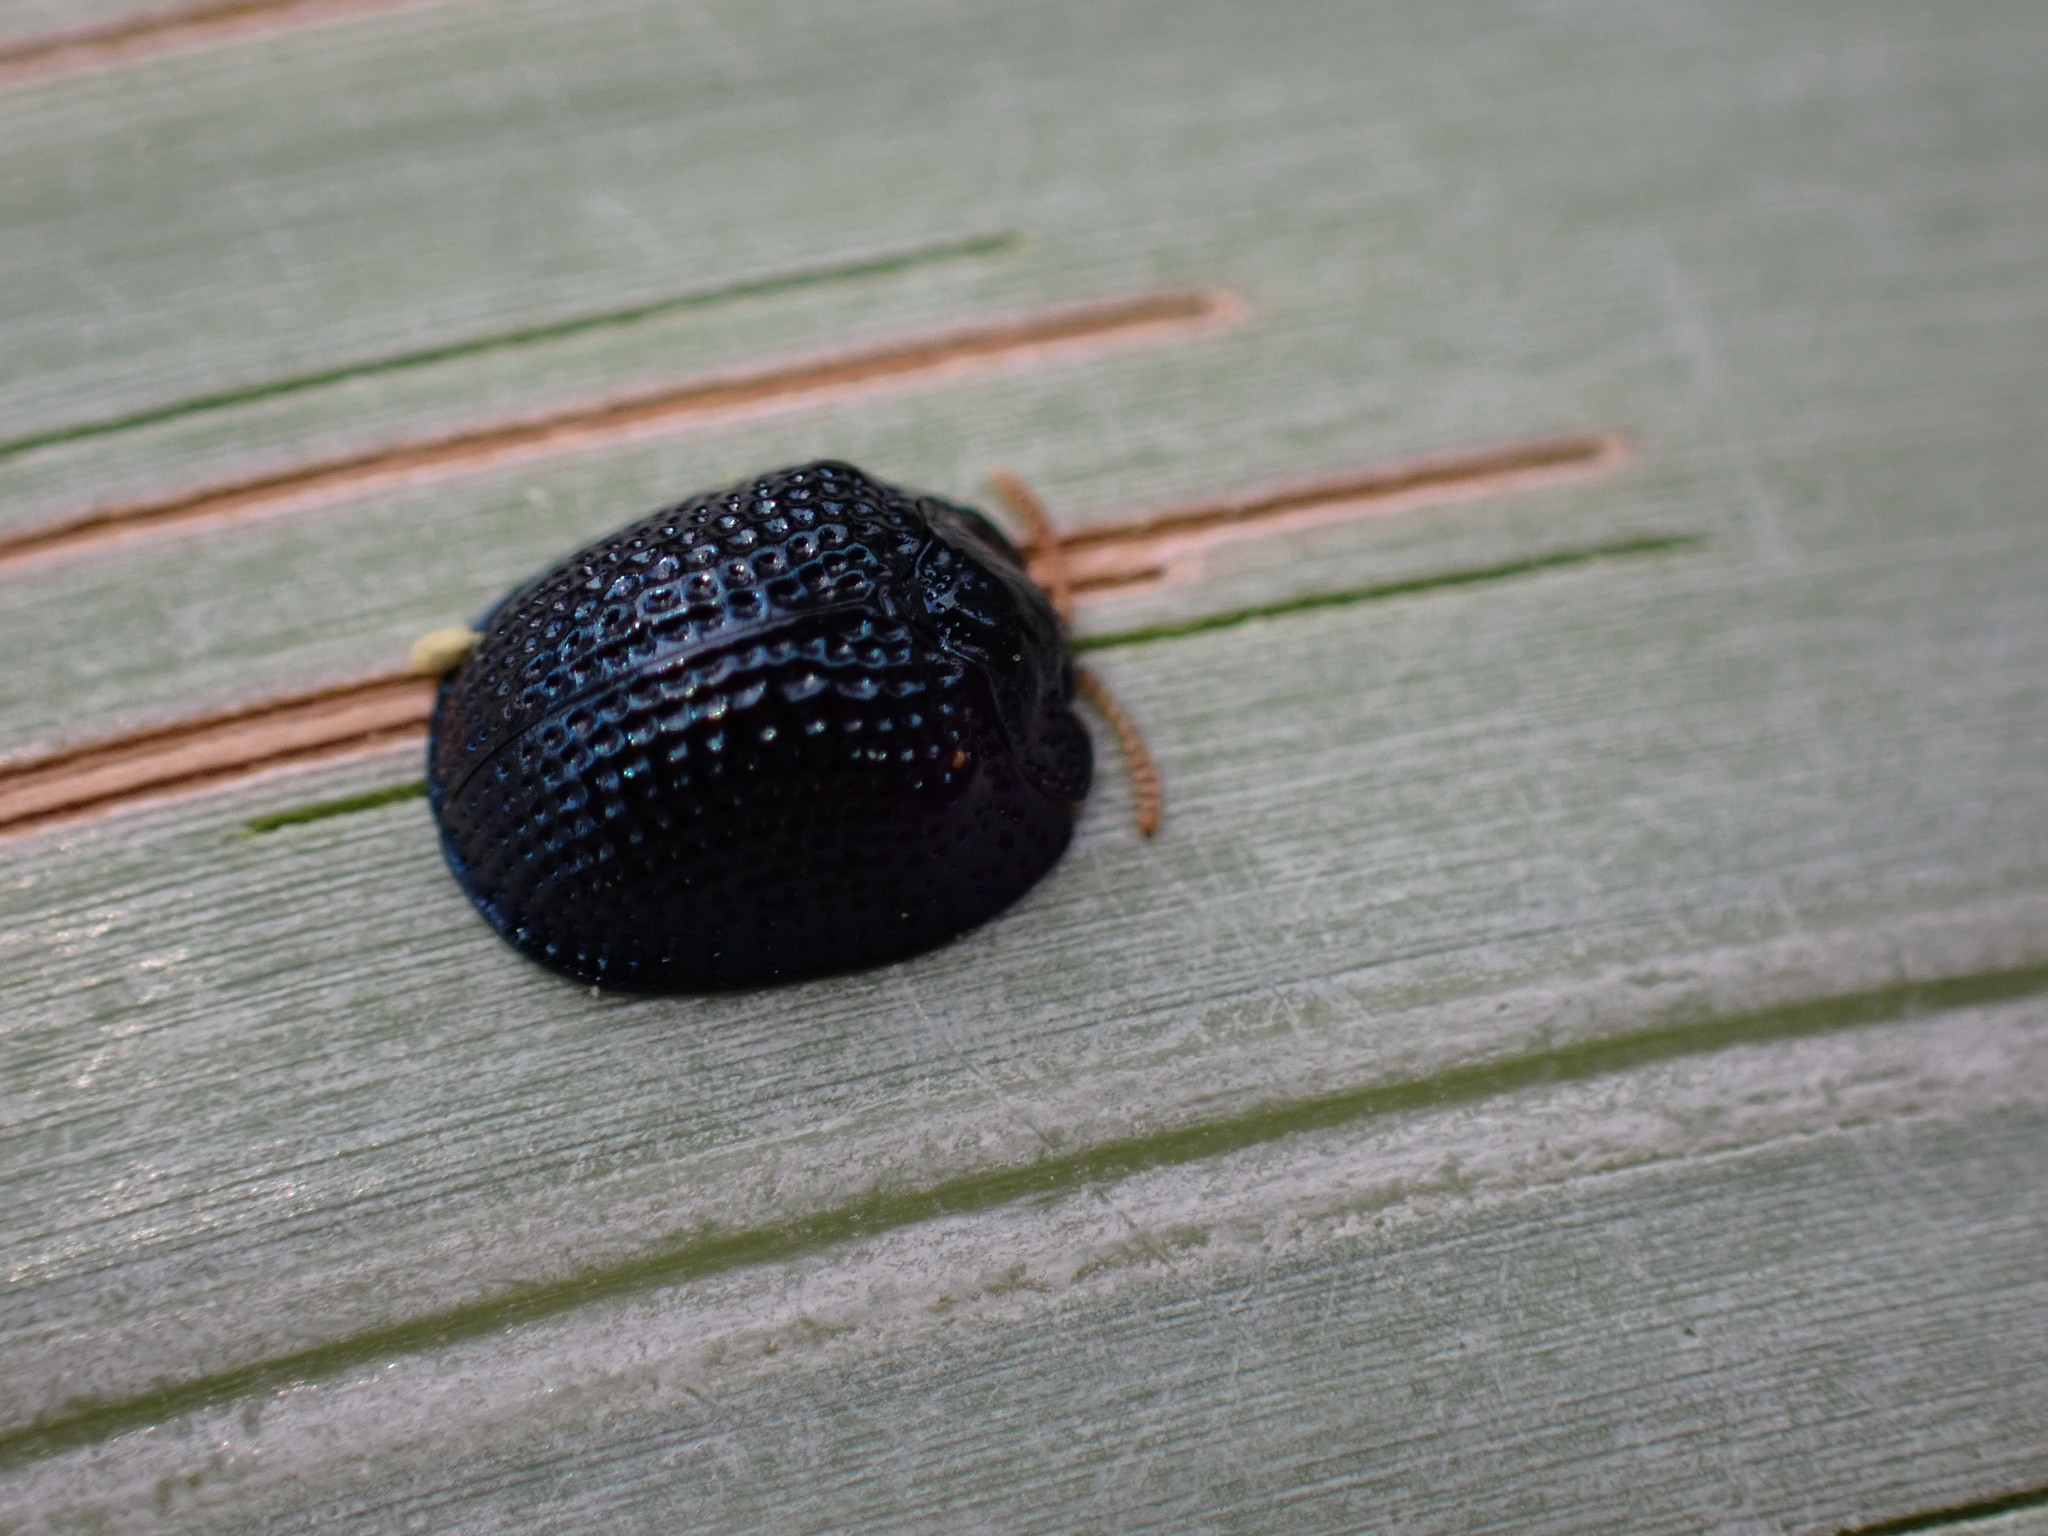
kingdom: Animalia
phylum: Arthropoda
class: Insecta
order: Coleoptera
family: Chrysomelidae
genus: Hemisphaerota
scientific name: Hemisphaerota cyanea
